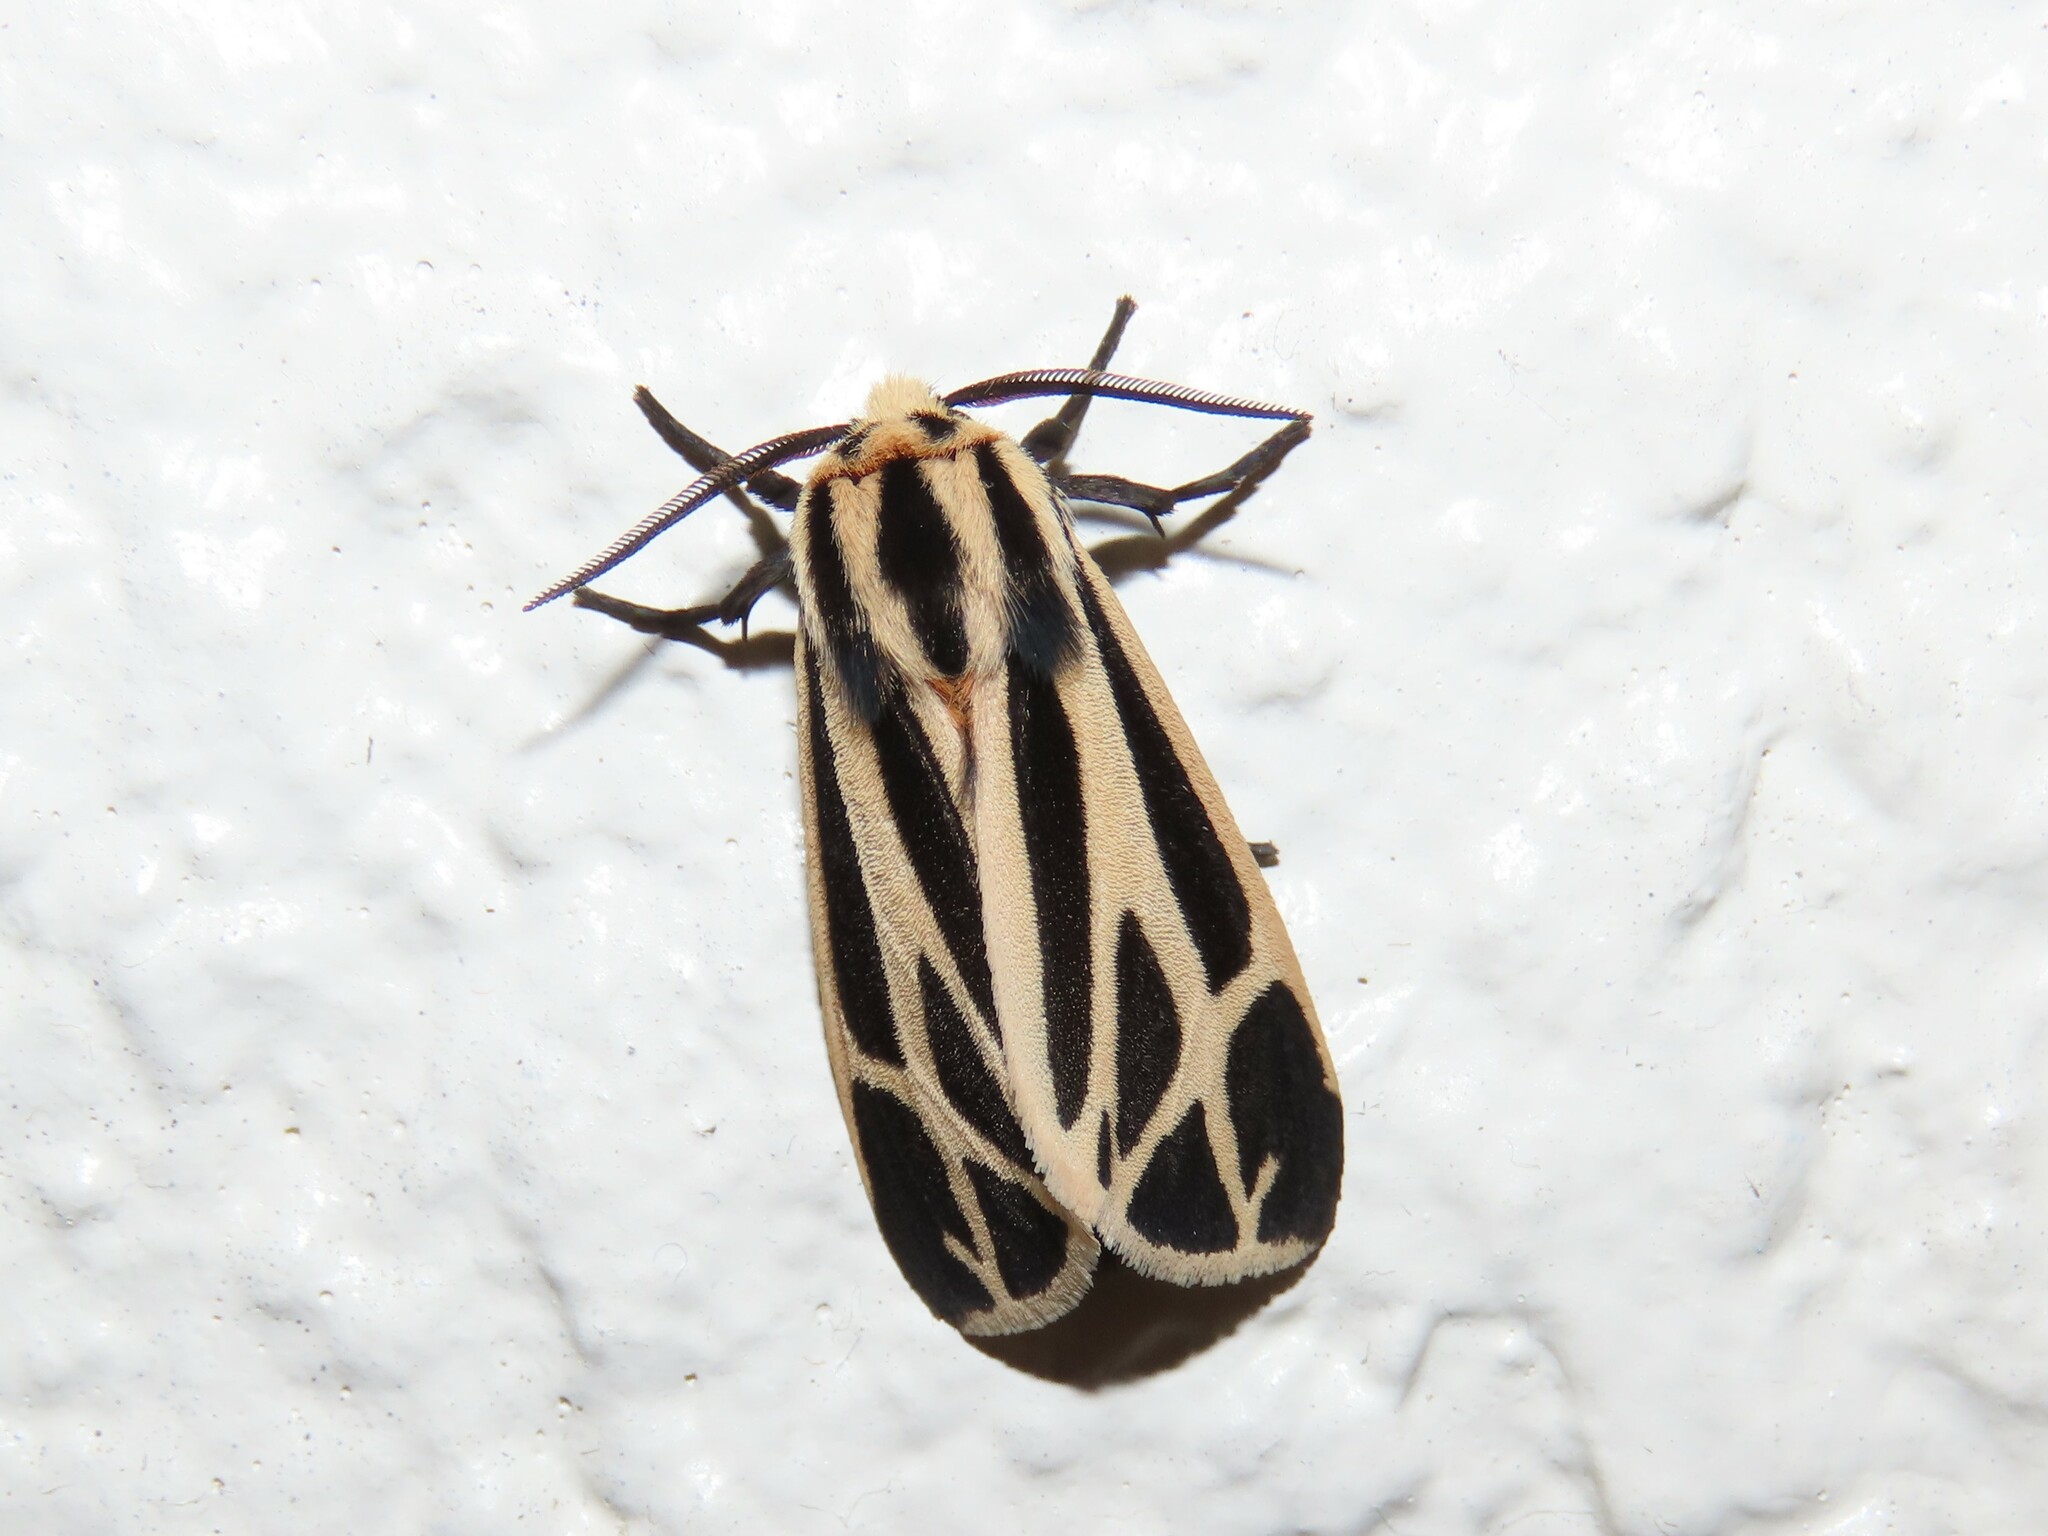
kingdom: Animalia
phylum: Arthropoda
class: Insecta
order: Lepidoptera
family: Erebidae
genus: Apantesis
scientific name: Apantesis phalerata
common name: Harnessed tiger moth
